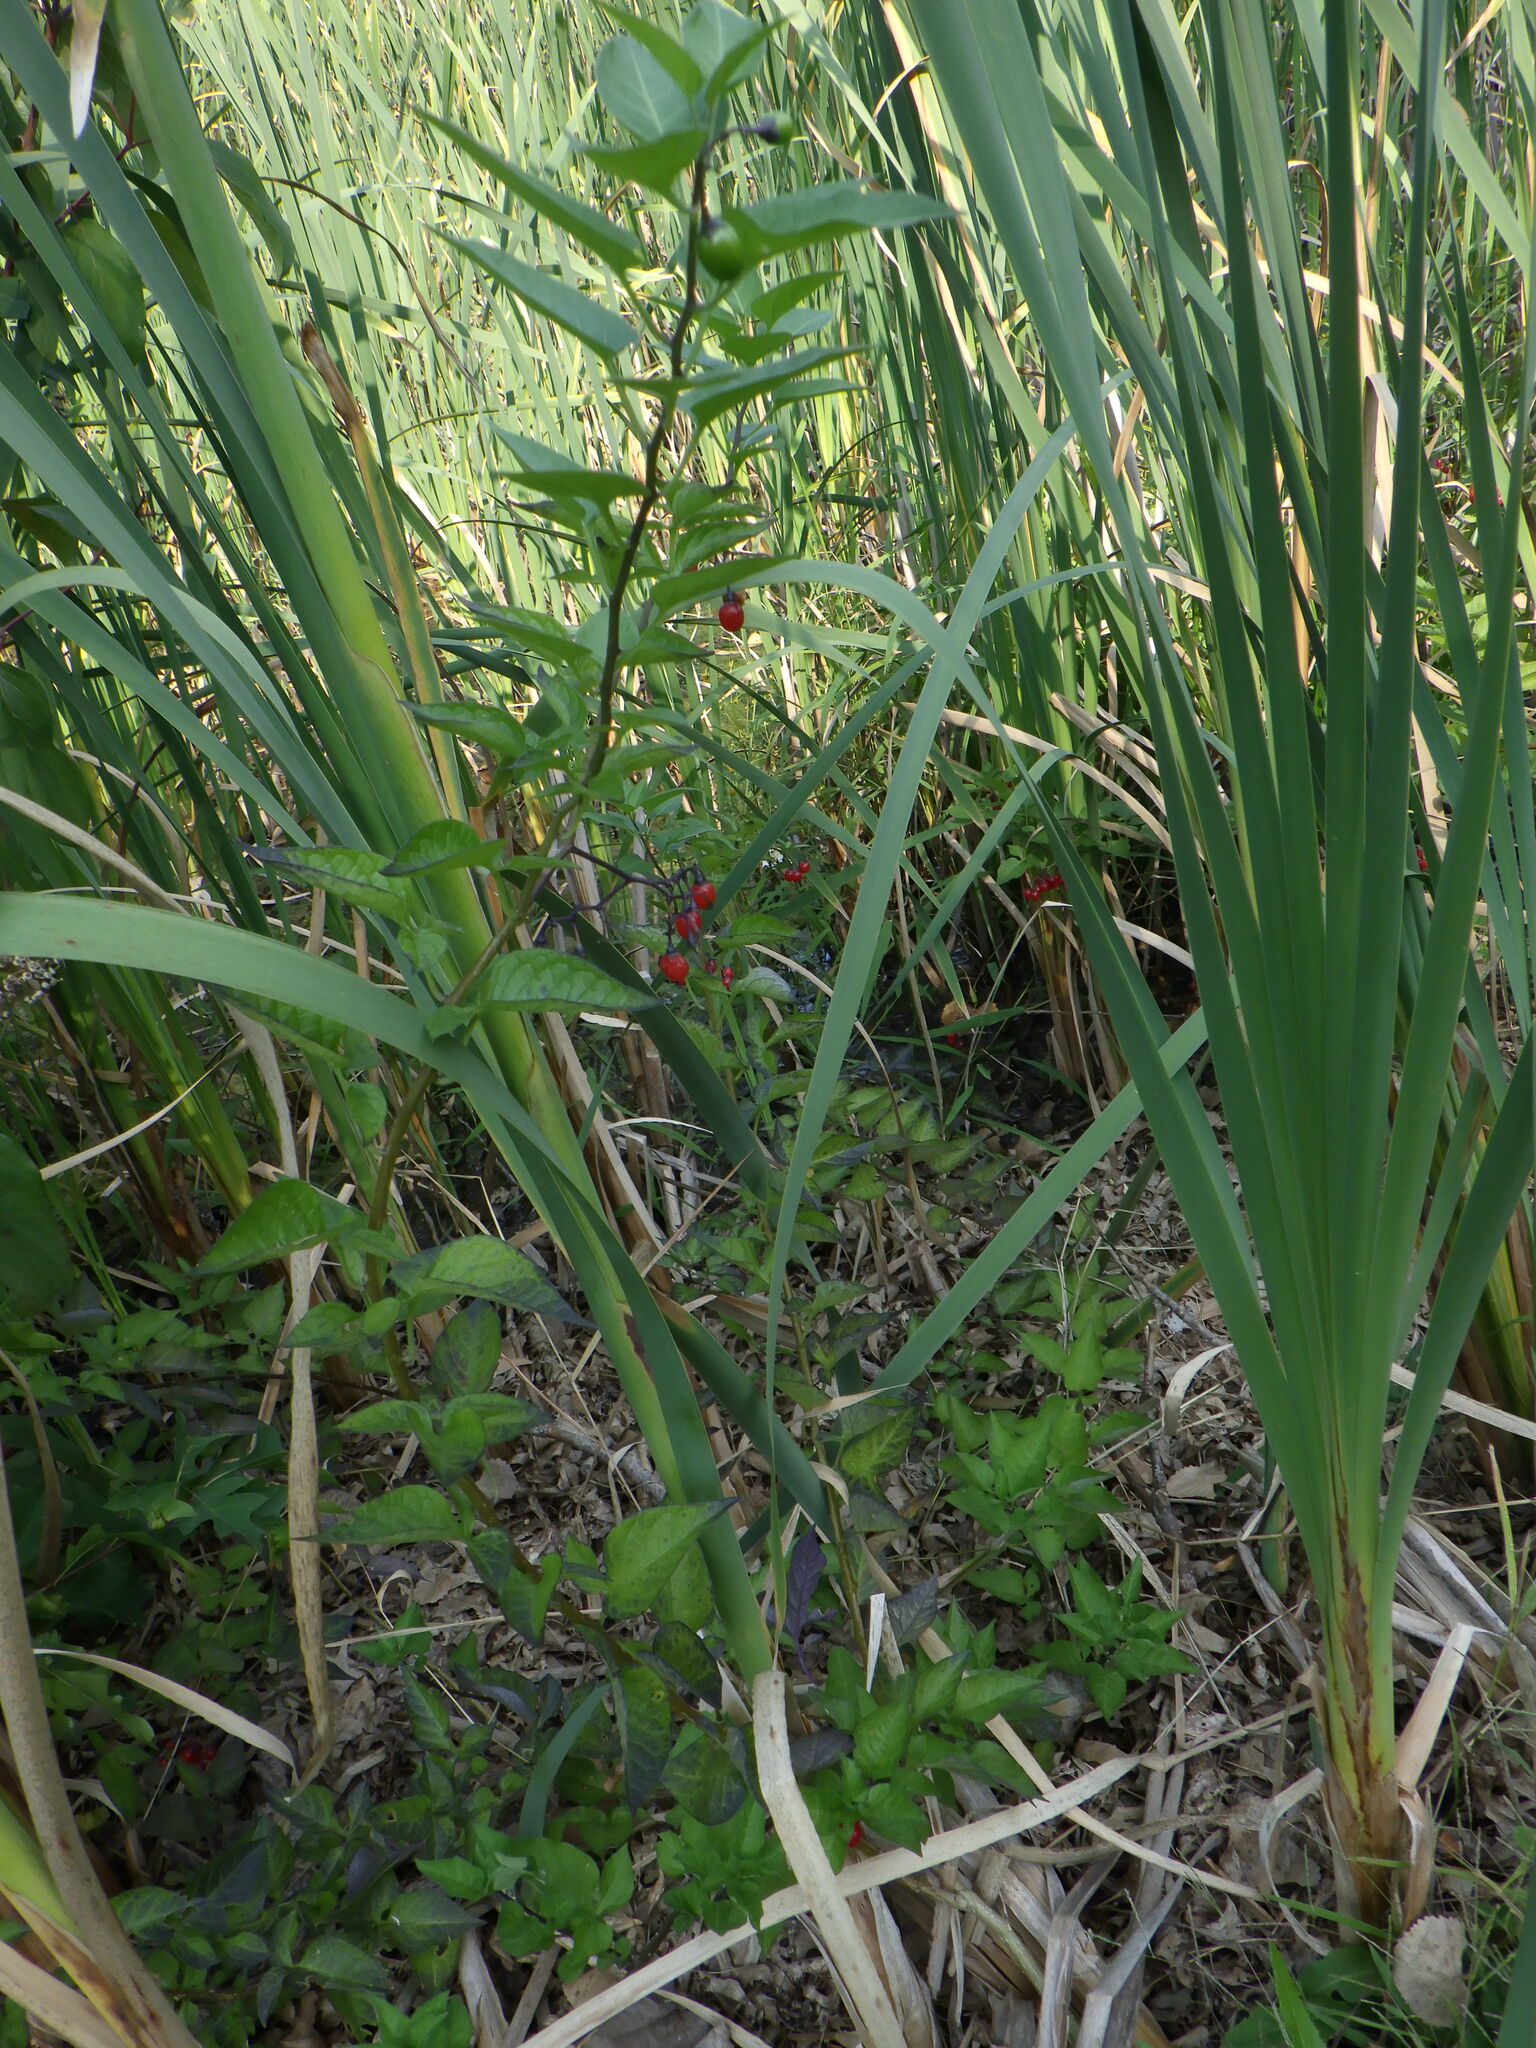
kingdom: Plantae
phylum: Tracheophyta
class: Magnoliopsida
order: Solanales
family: Solanaceae
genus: Solanum
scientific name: Solanum dulcamara
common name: Climbing nightshade
